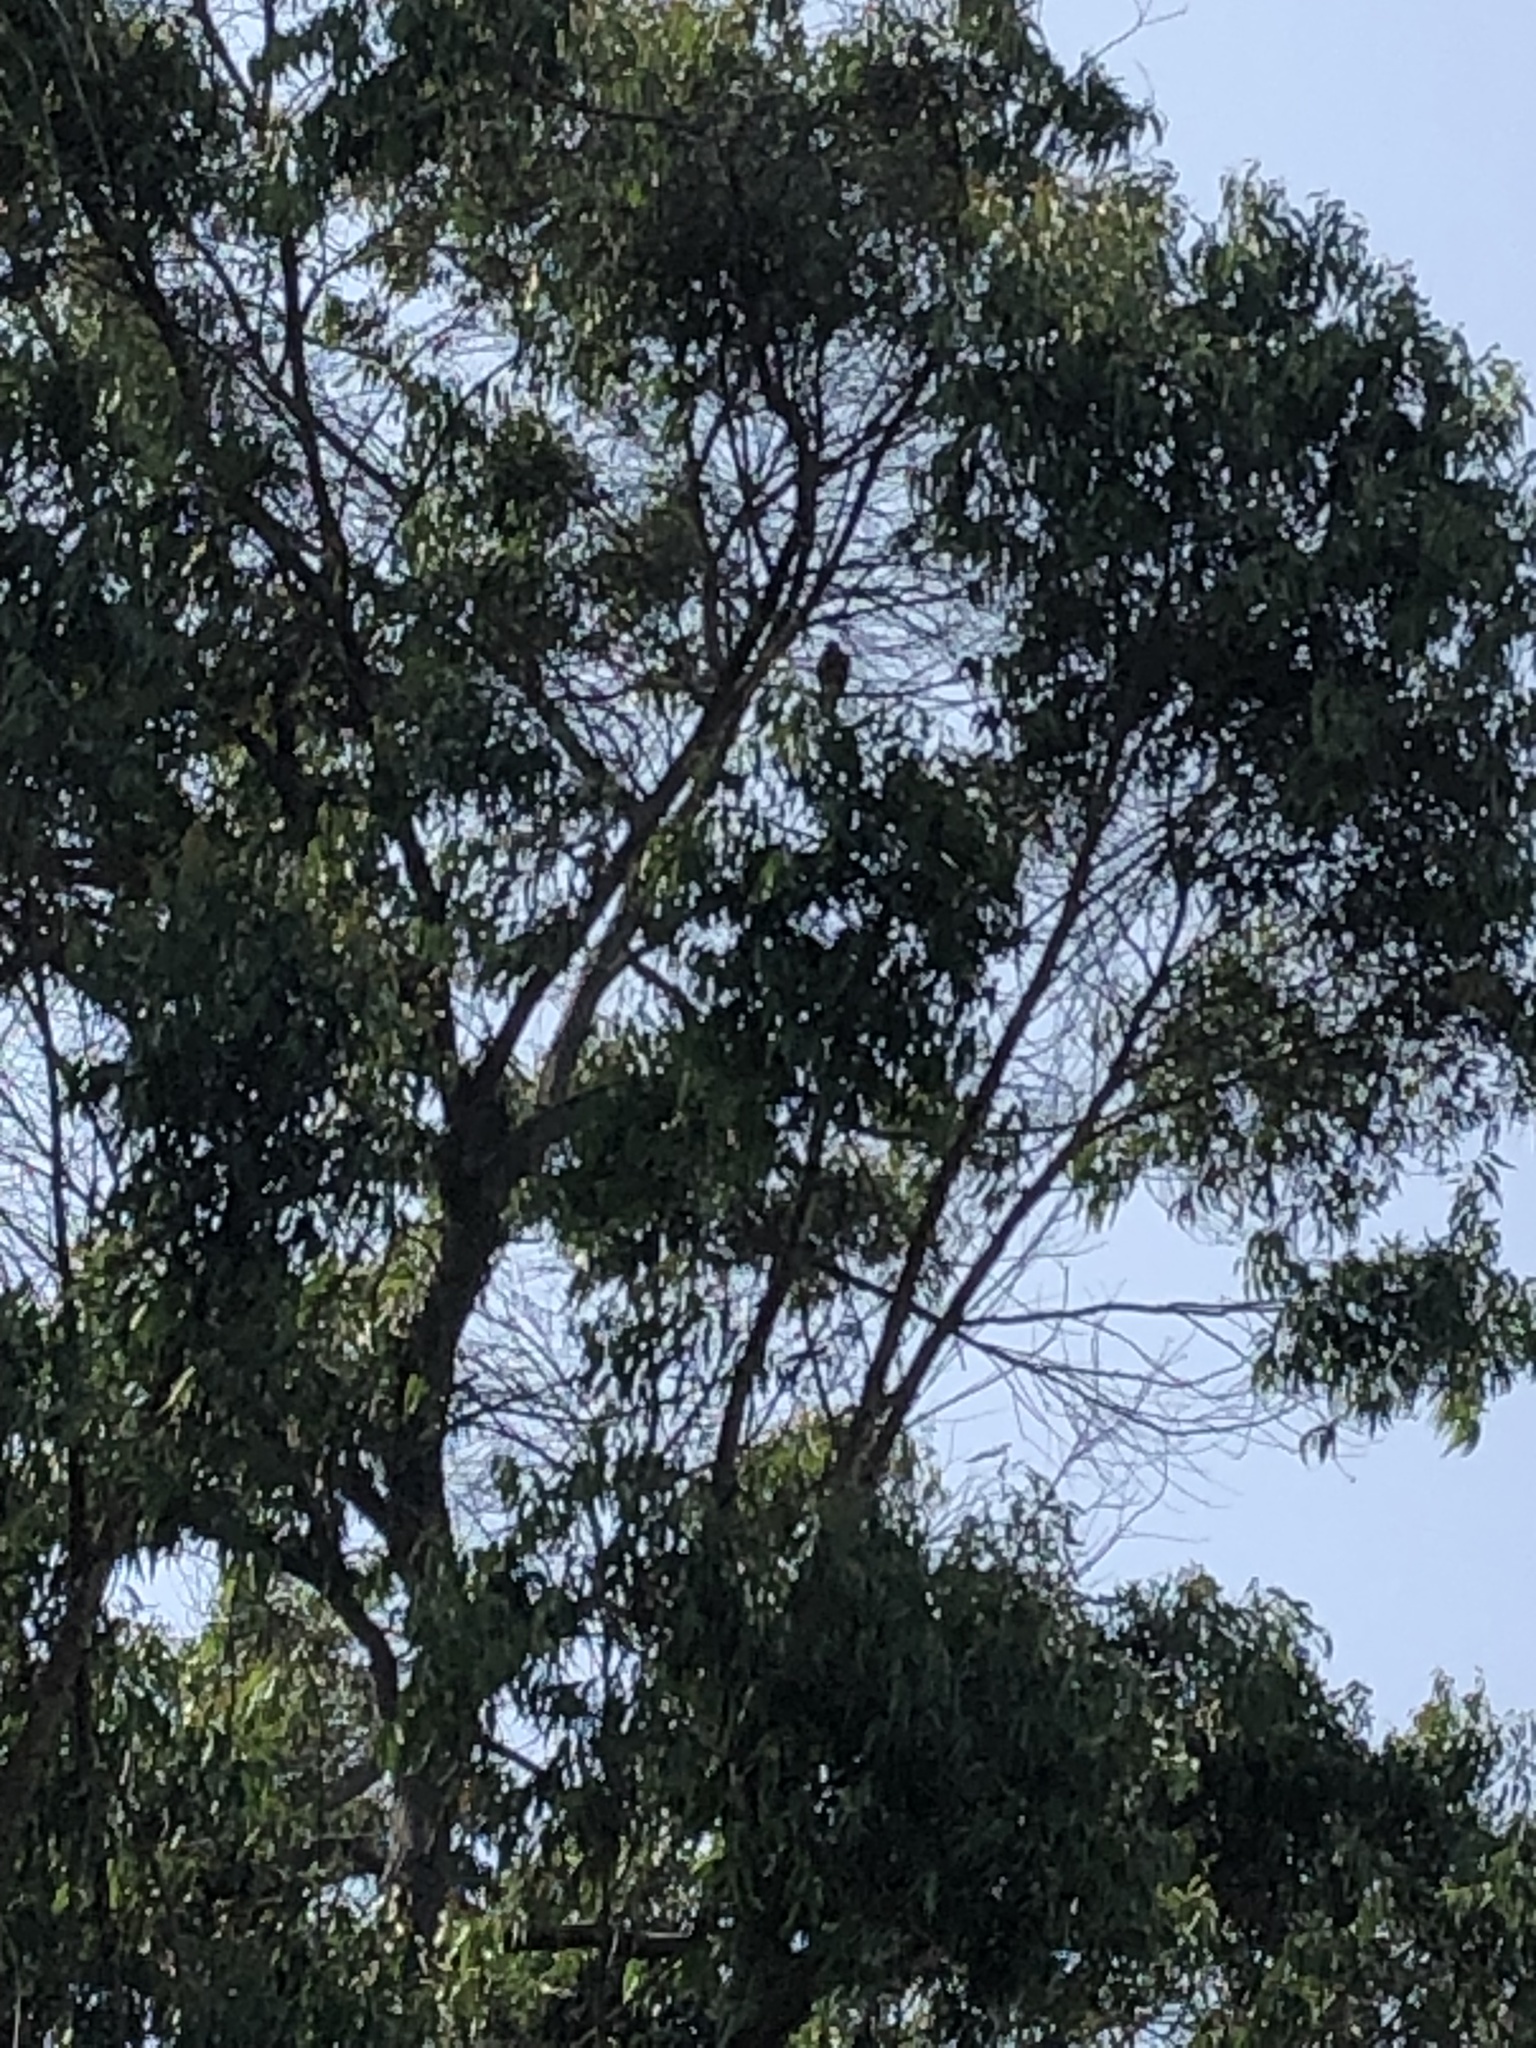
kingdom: Animalia
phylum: Chordata
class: Aves
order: Accipitriformes
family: Accipitridae
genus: Parabuteo
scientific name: Parabuteo unicinctus
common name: Harris's hawk
